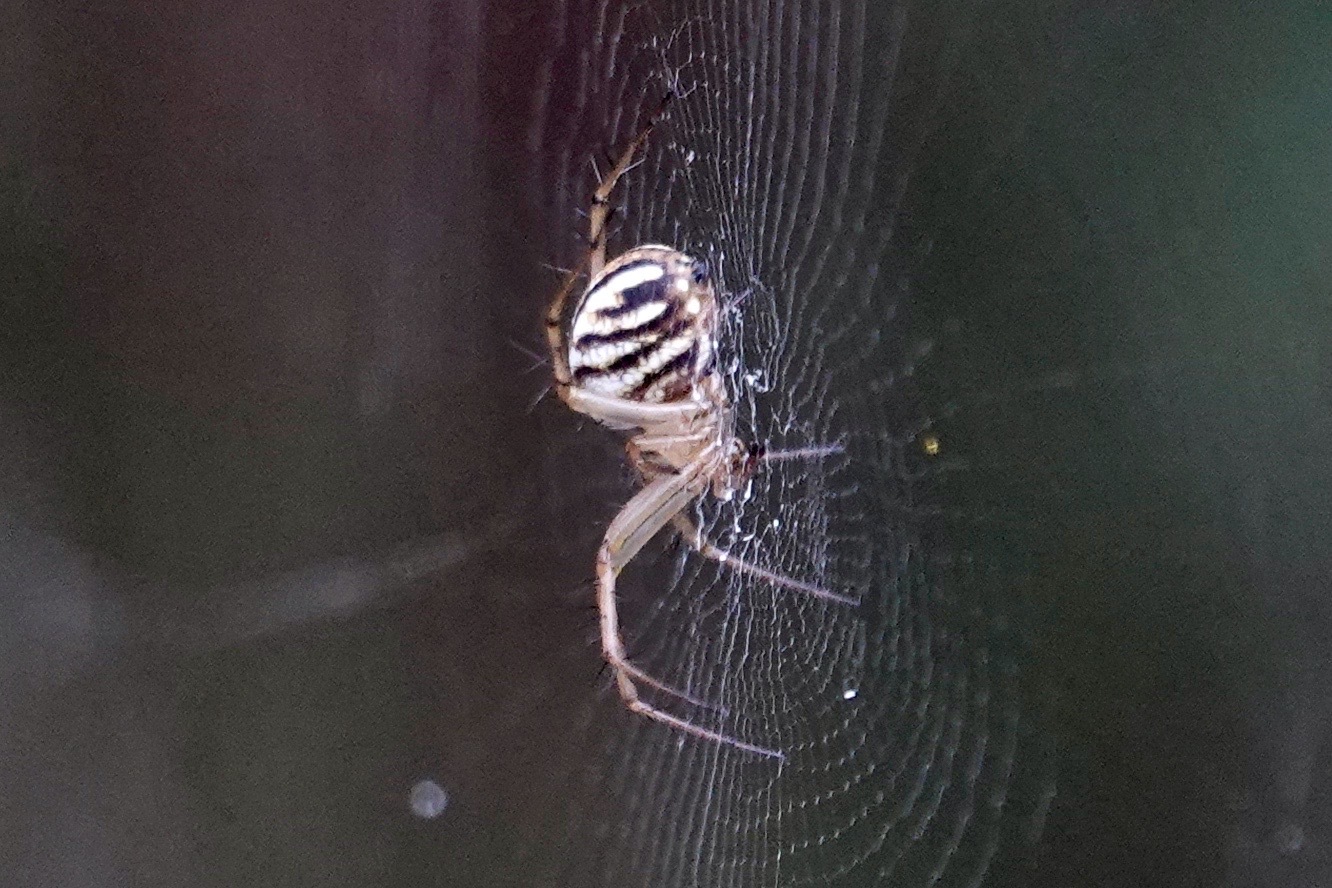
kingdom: Animalia
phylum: Arthropoda
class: Arachnida
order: Araneae
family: Araneidae
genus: Mangora
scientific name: Mangora gibberosa
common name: Lined orbweaver
